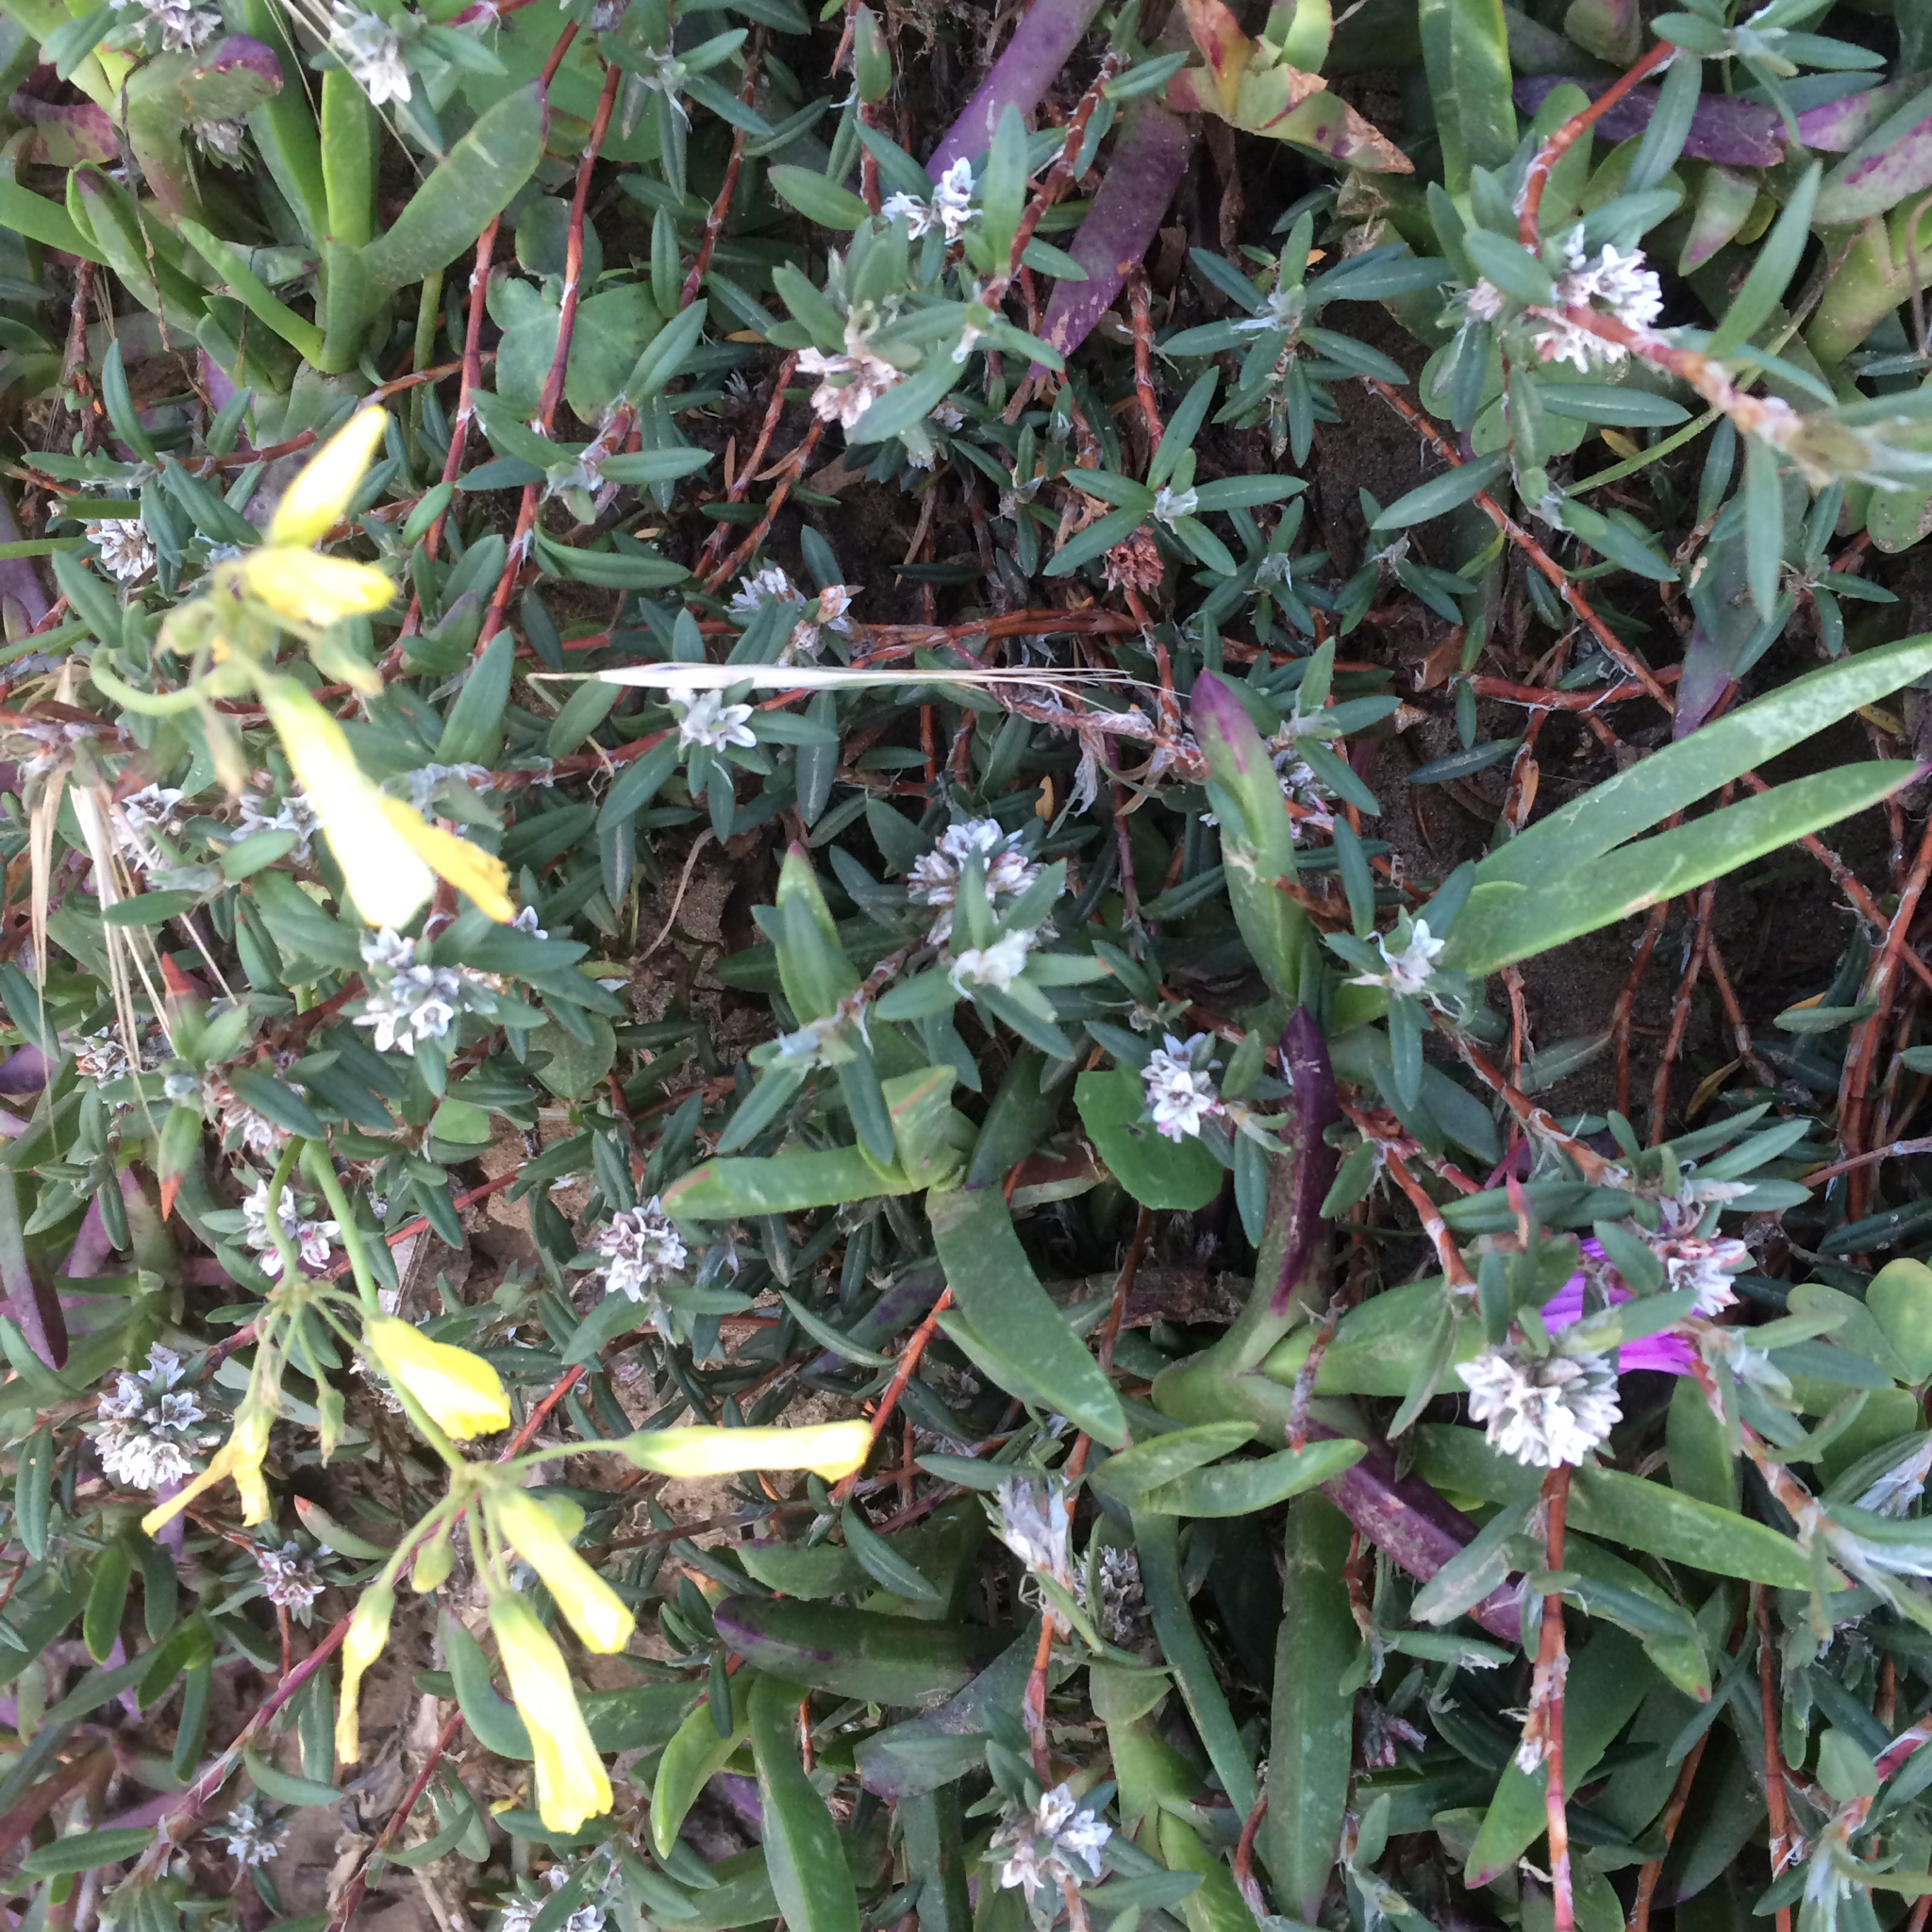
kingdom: Plantae
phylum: Tracheophyta
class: Magnoliopsida
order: Caryophyllales
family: Polygonaceae
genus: Polygonum
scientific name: Polygonum paronychia
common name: Dune knotweed
